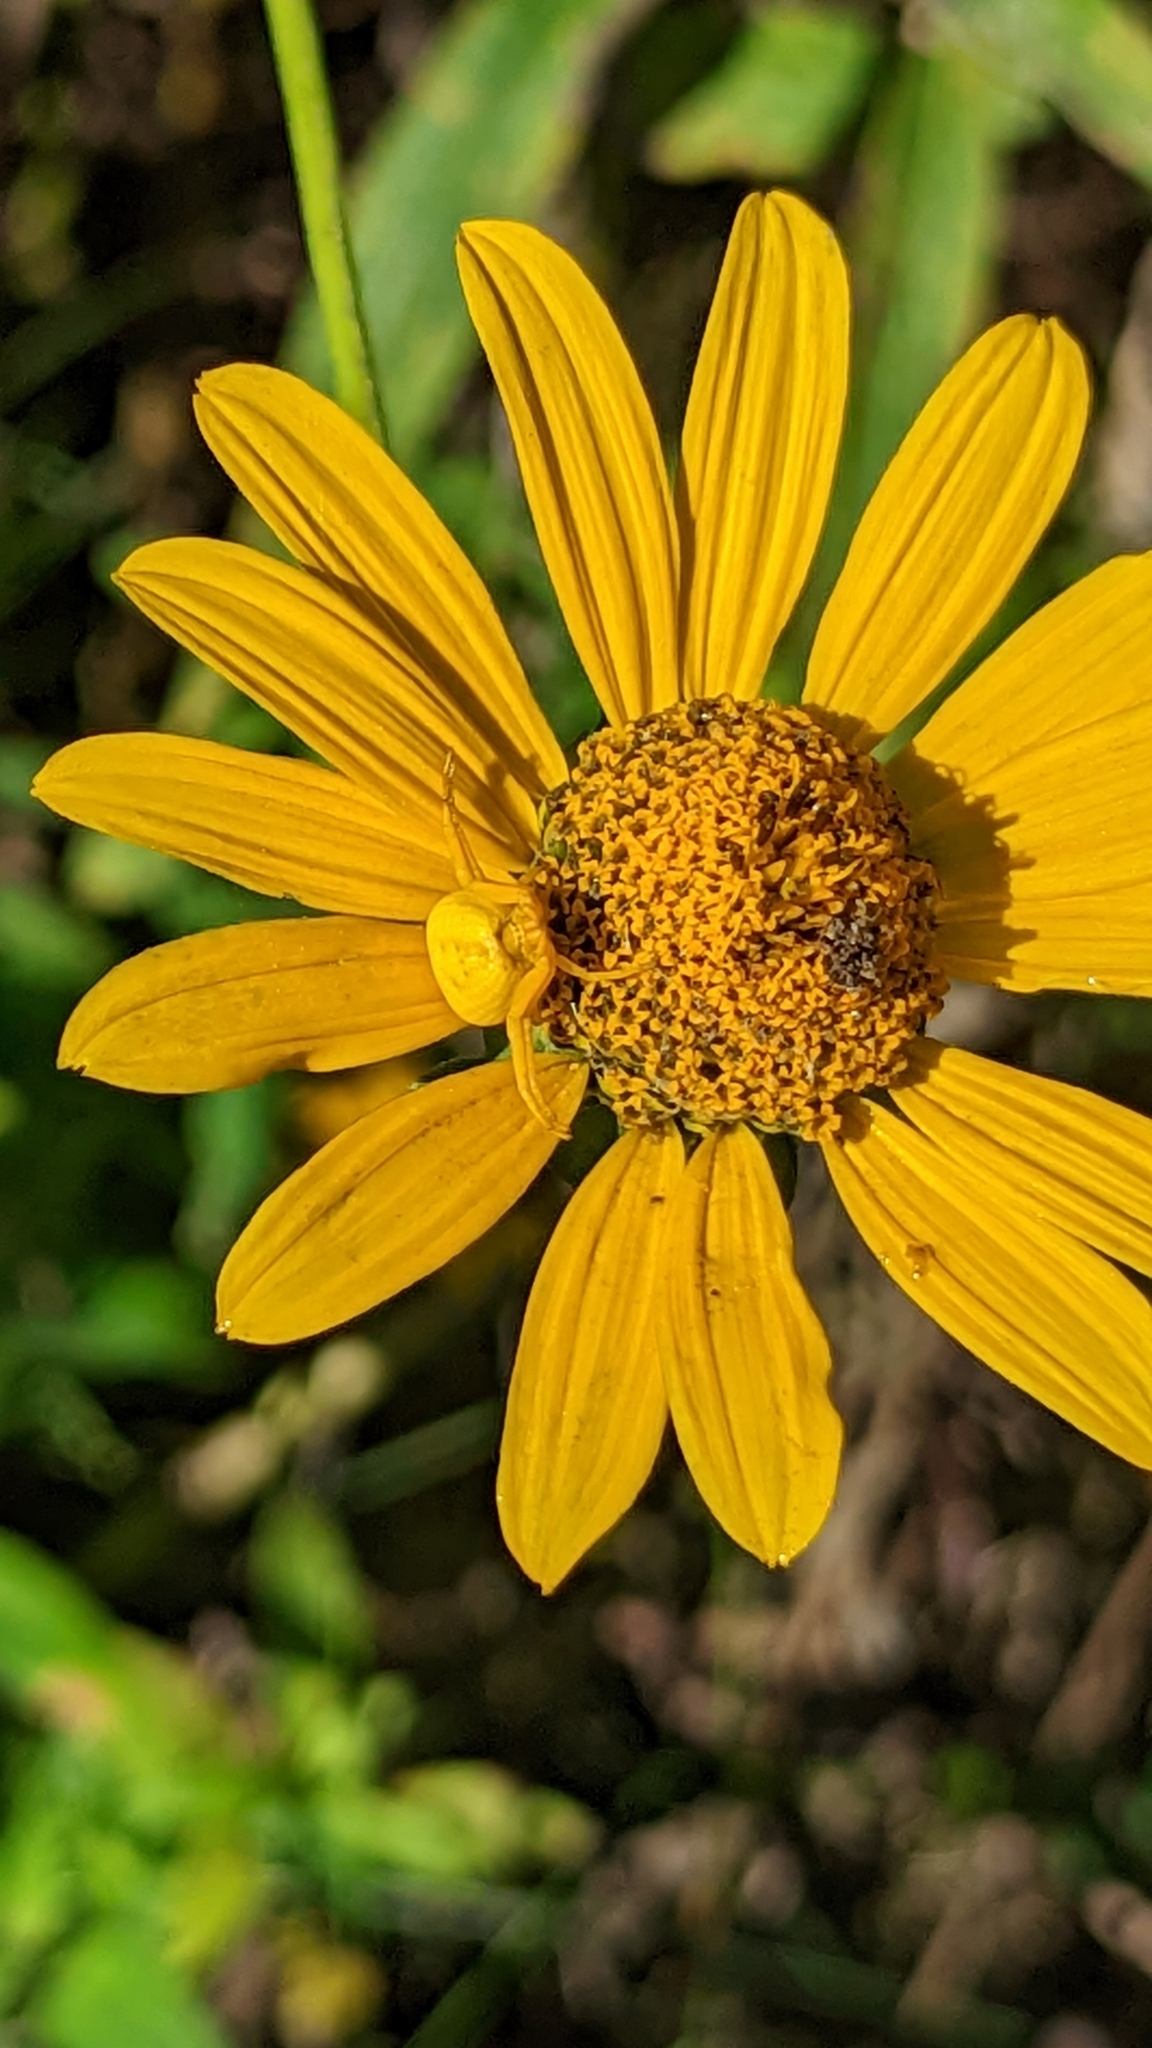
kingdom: Animalia
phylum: Arthropoda
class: Arachnida
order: Araneae
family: Thomisidae
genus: Misumenoides
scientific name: Misumenoides formosipes
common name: White-banded crab spider
